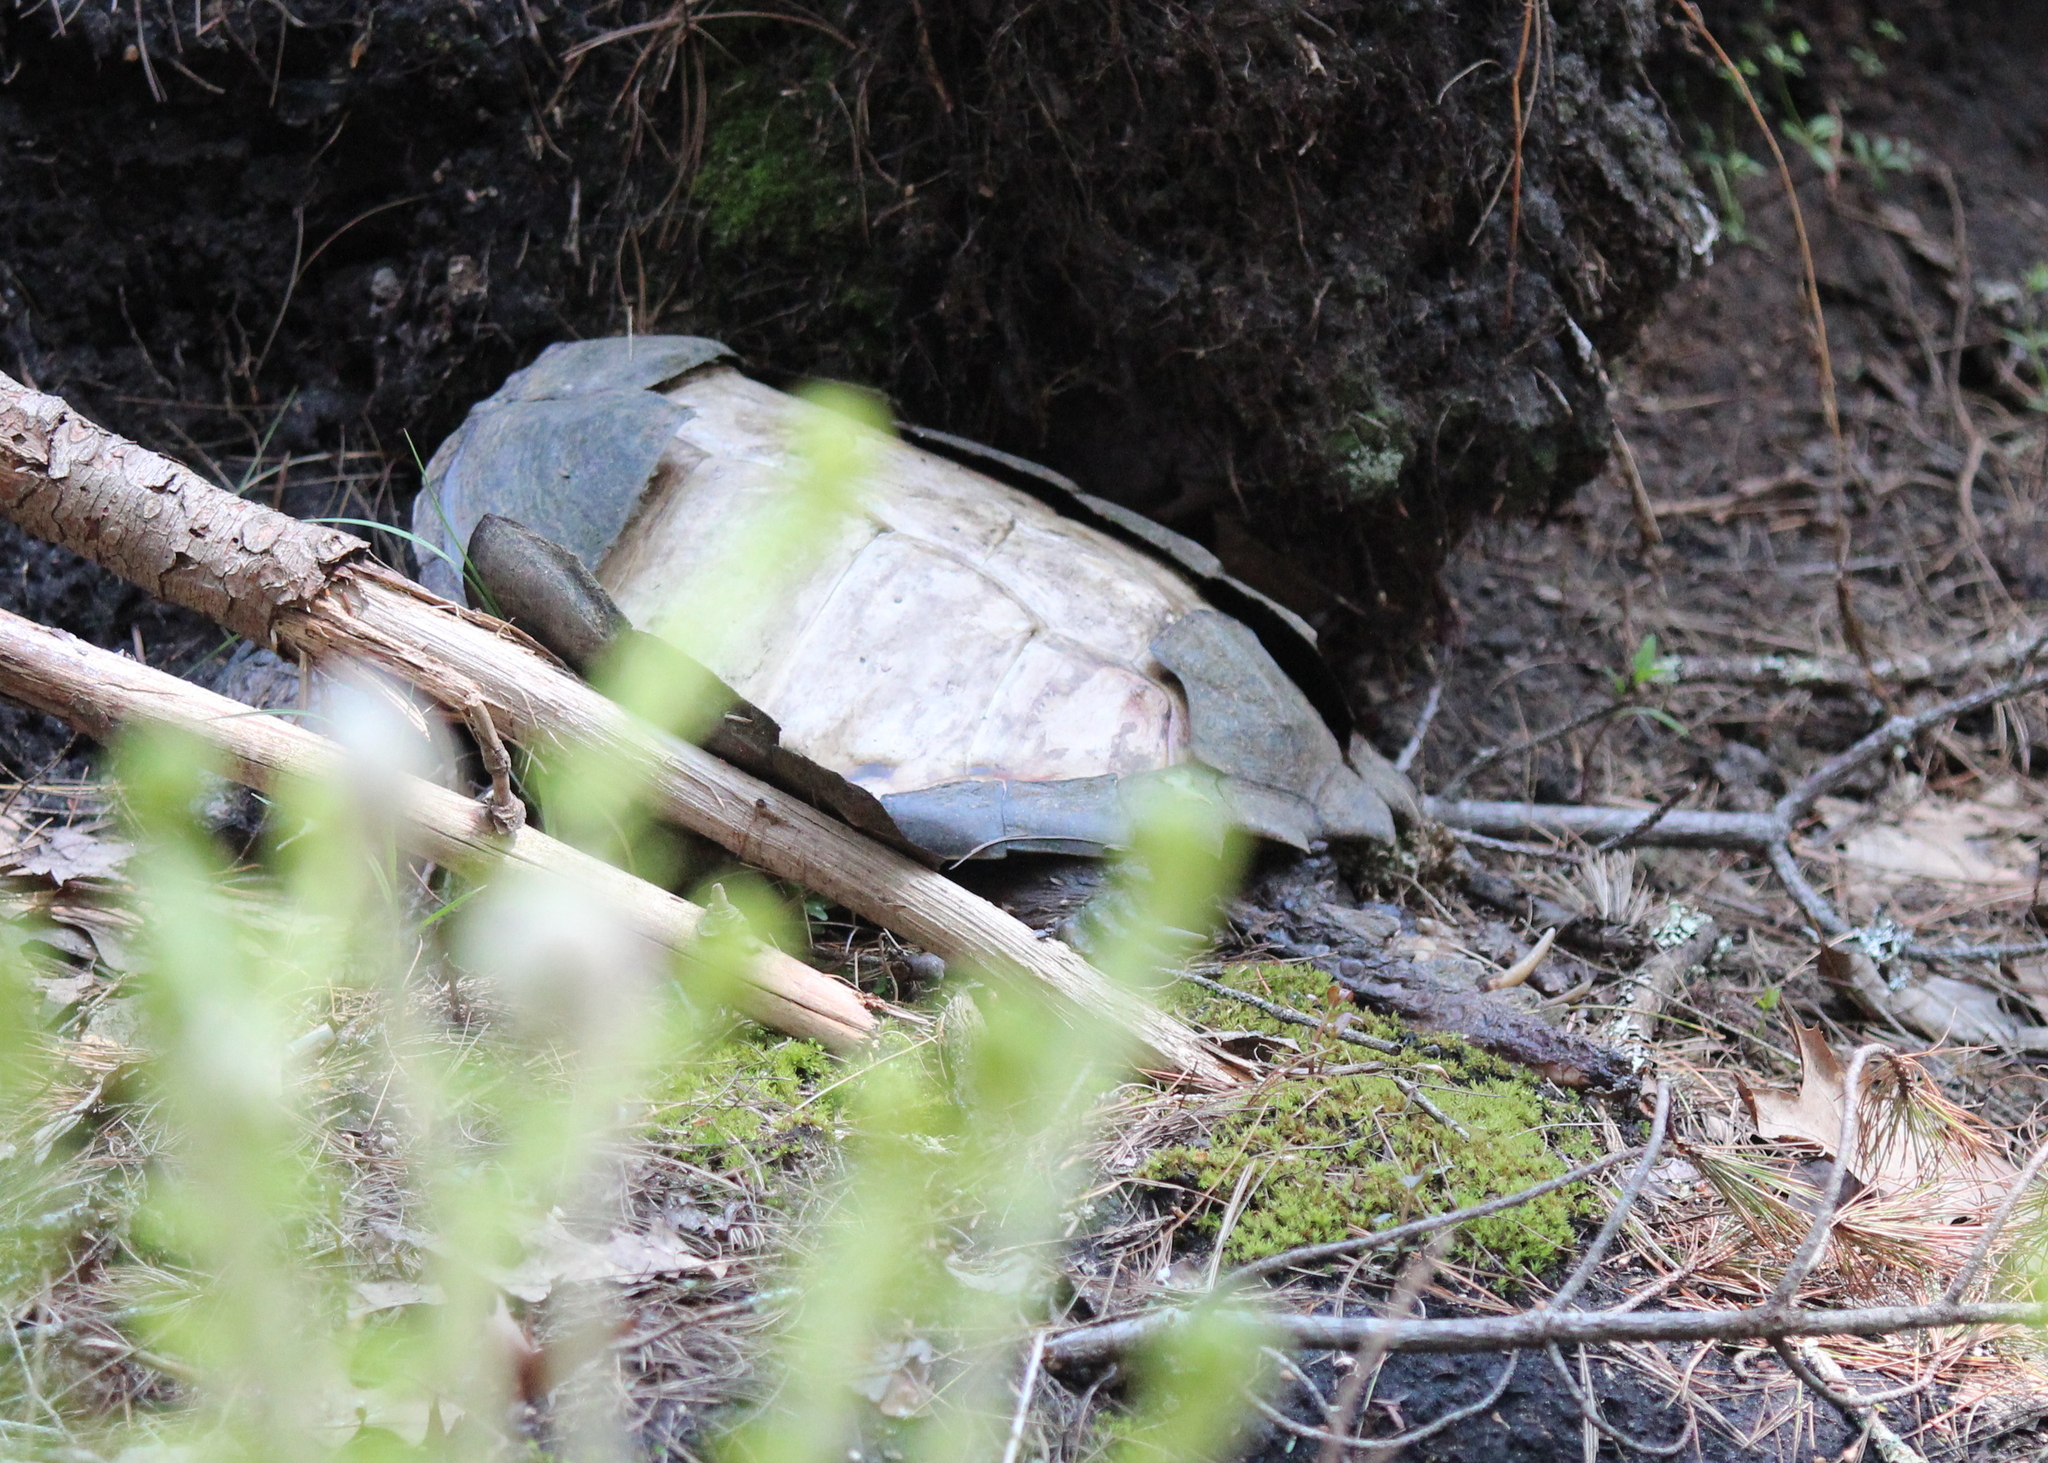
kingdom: Animalia
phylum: Chordata
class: Testudines
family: Chelydridae
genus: Chelydra
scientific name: Chelydra serpentina
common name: Common snapping turtle
